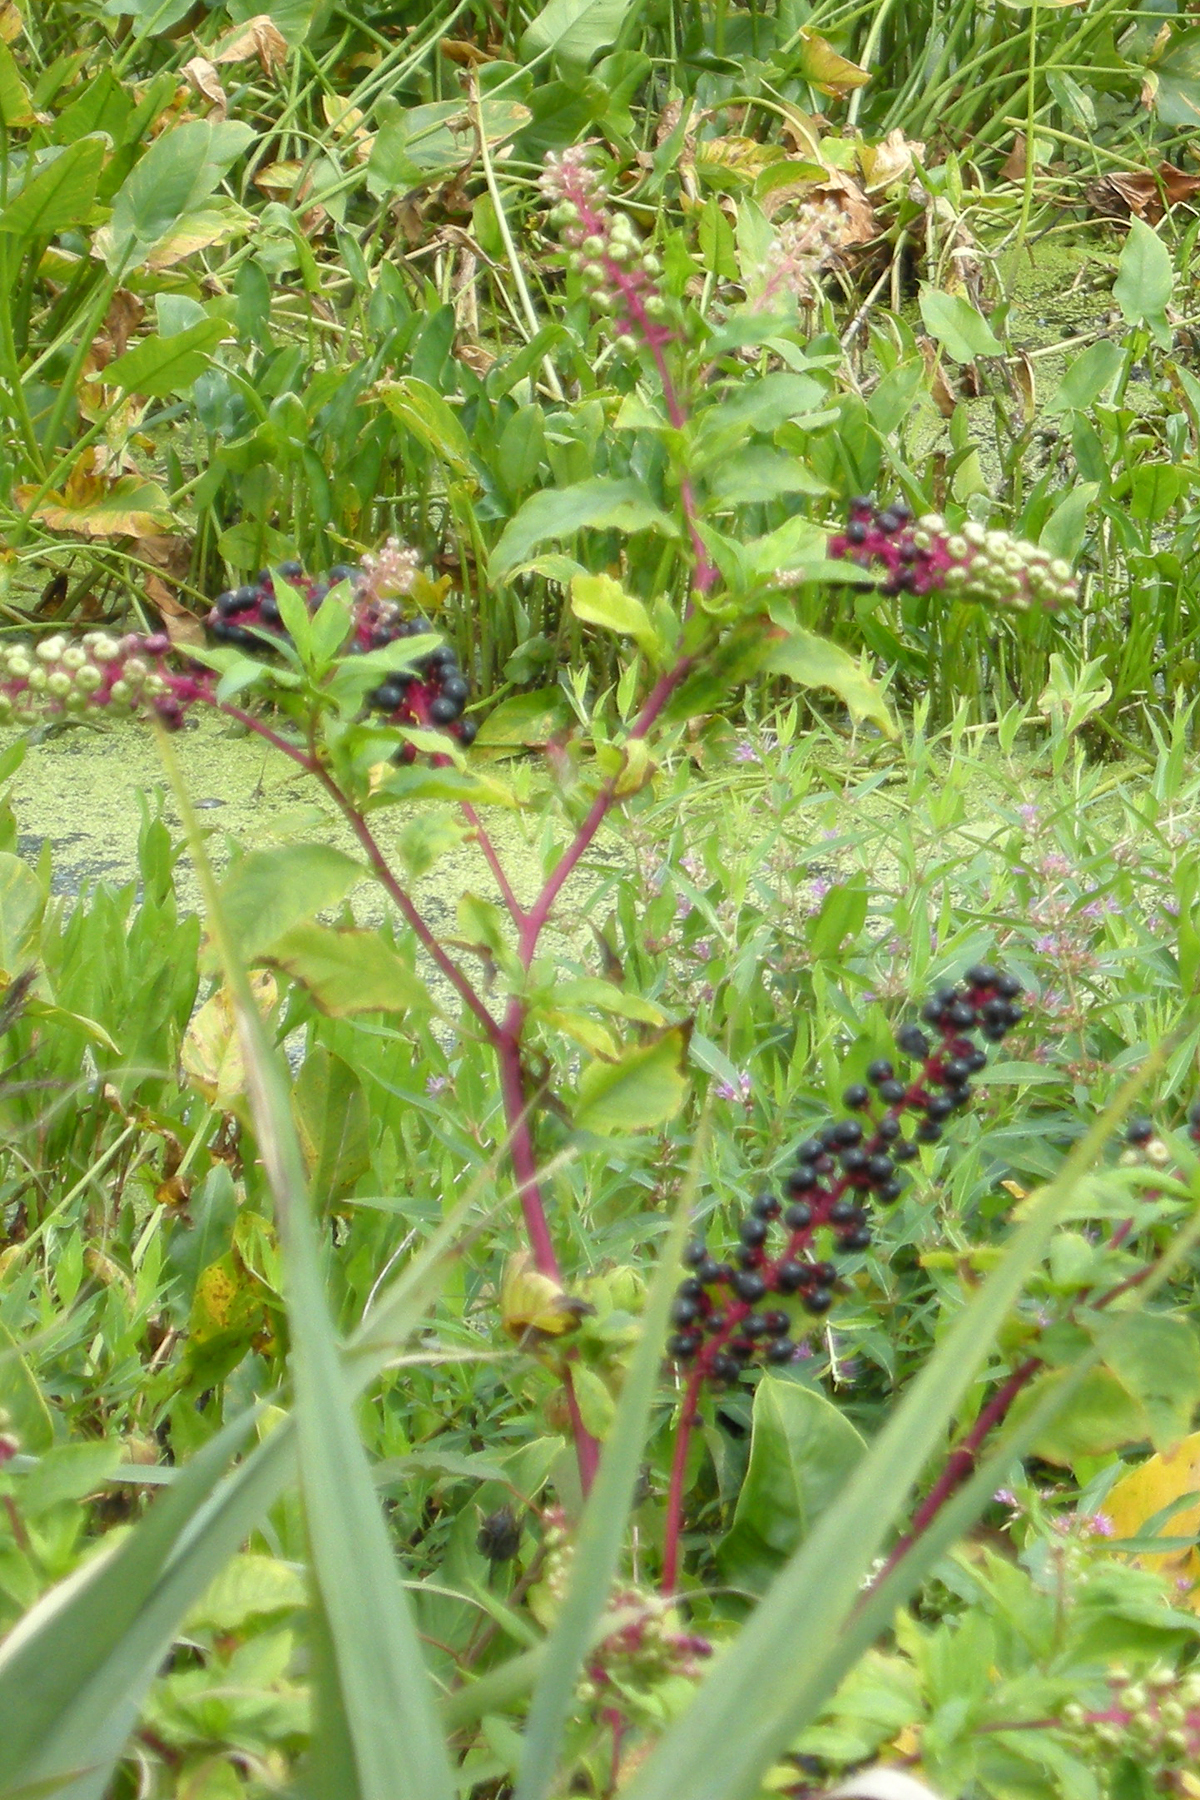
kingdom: Plantae
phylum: Tracheophyta
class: Magnoliopsida
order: Caryophyllales
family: Phytolaccaceae
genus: Phytolacca
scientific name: Phytolacca americana
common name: American pokeweed
